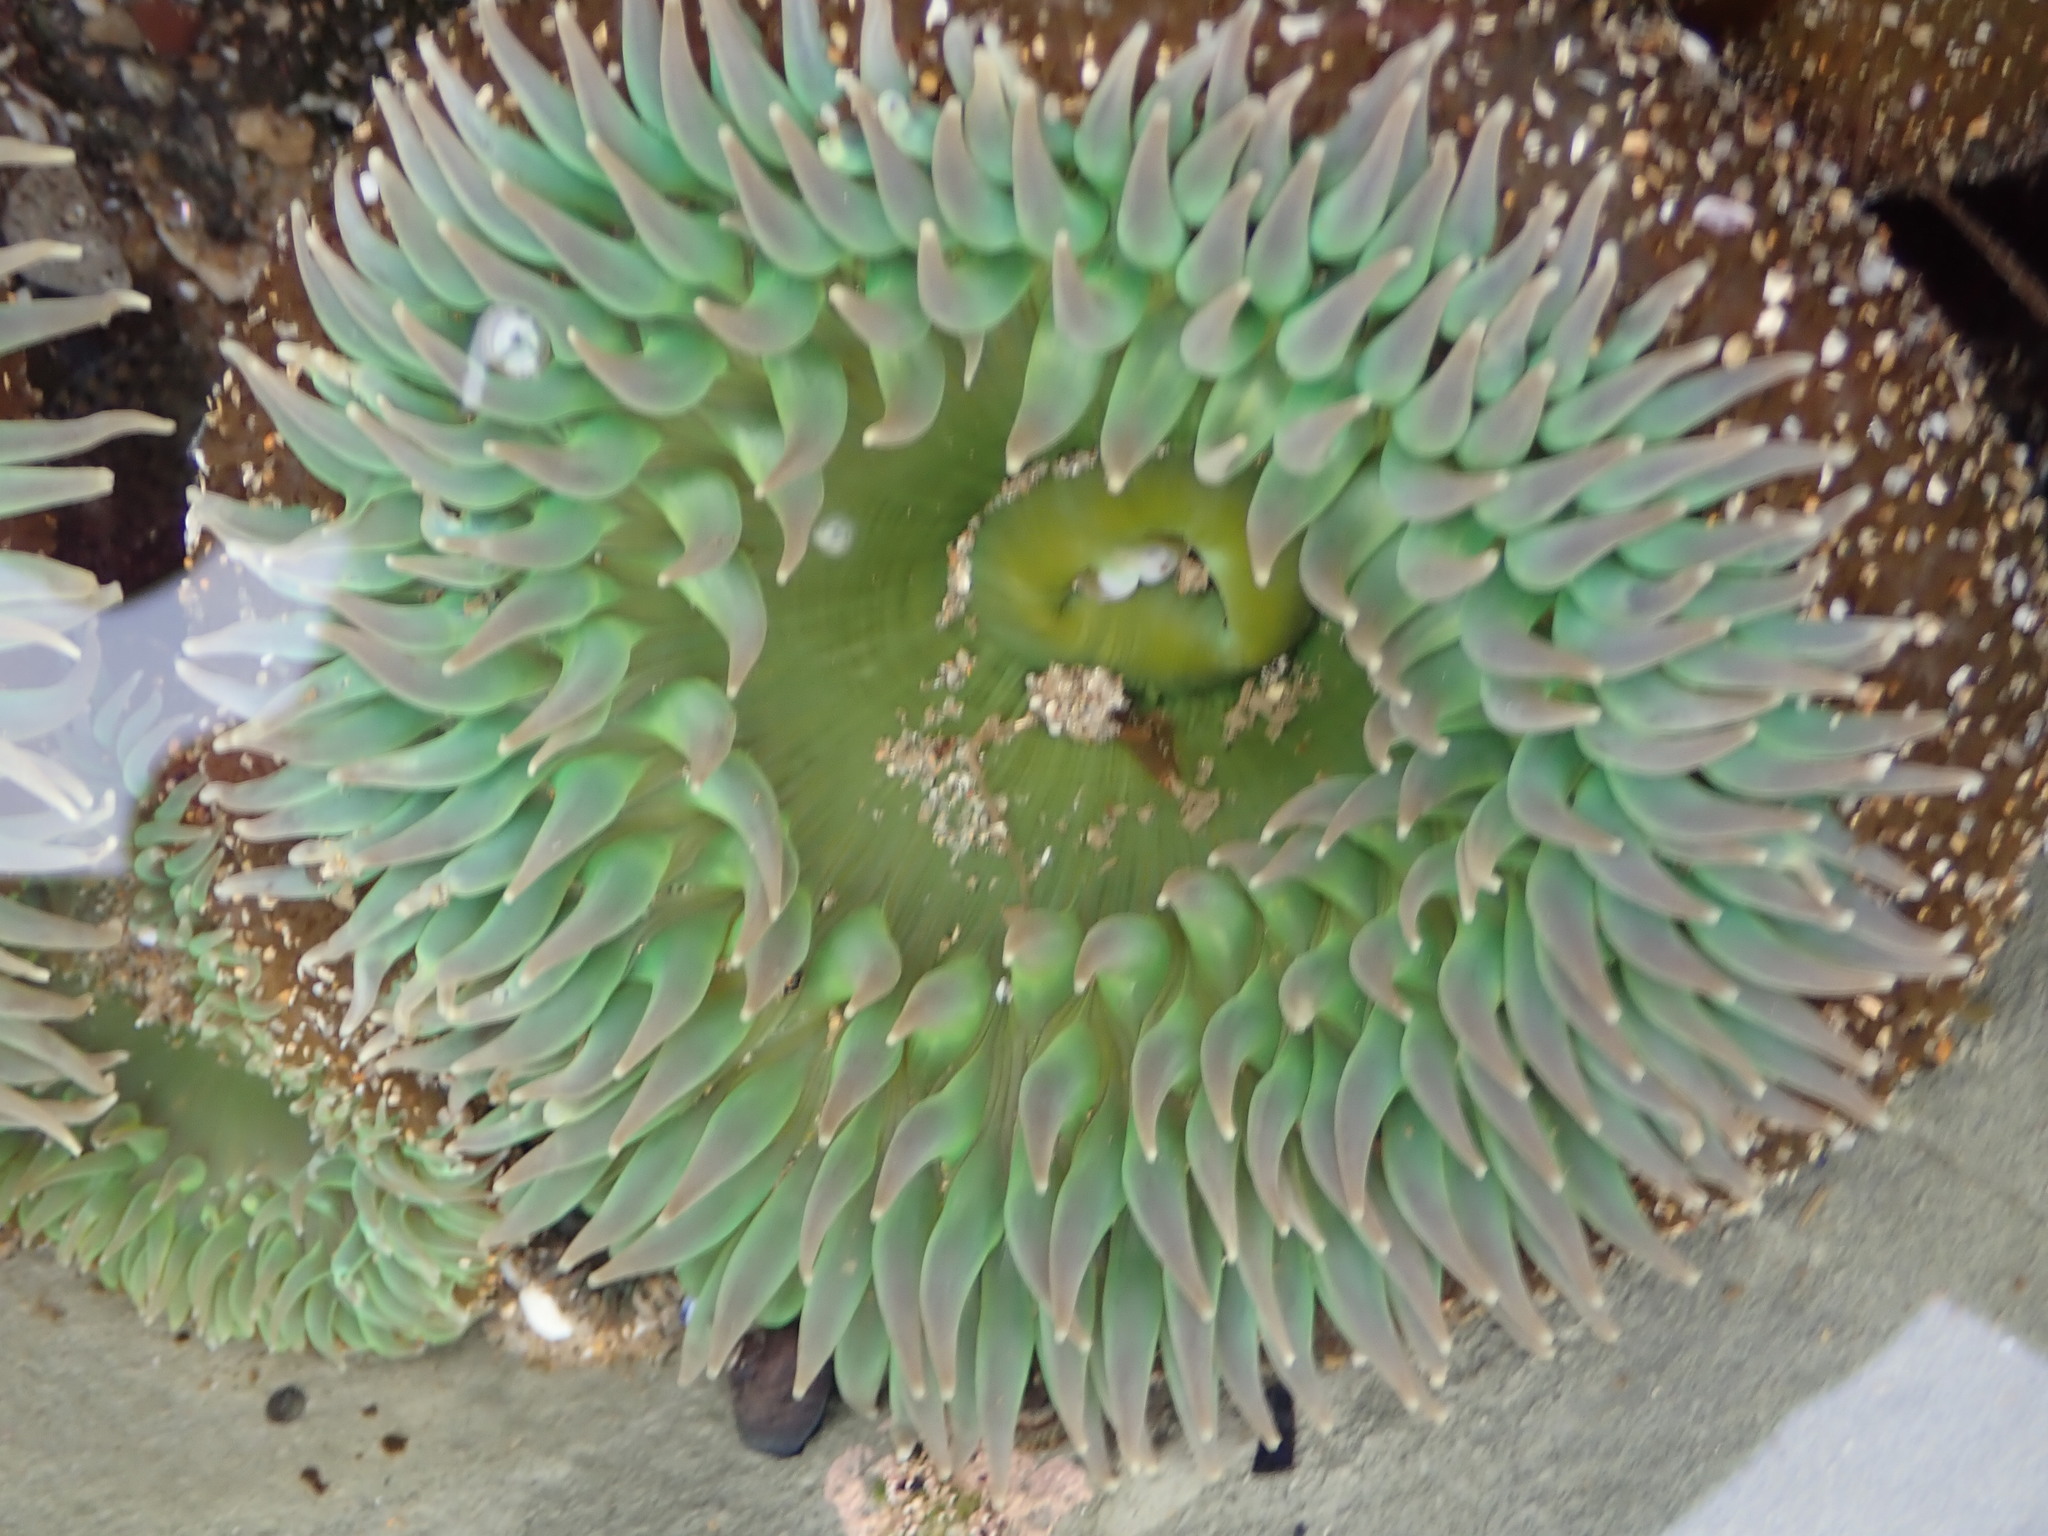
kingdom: Animalia
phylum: Cnidaria
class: Anthozoa
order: Actiniaria
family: Actiniidae
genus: Anthopleura
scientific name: Anthopleura xanthogrammica
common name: Giant green anemone
